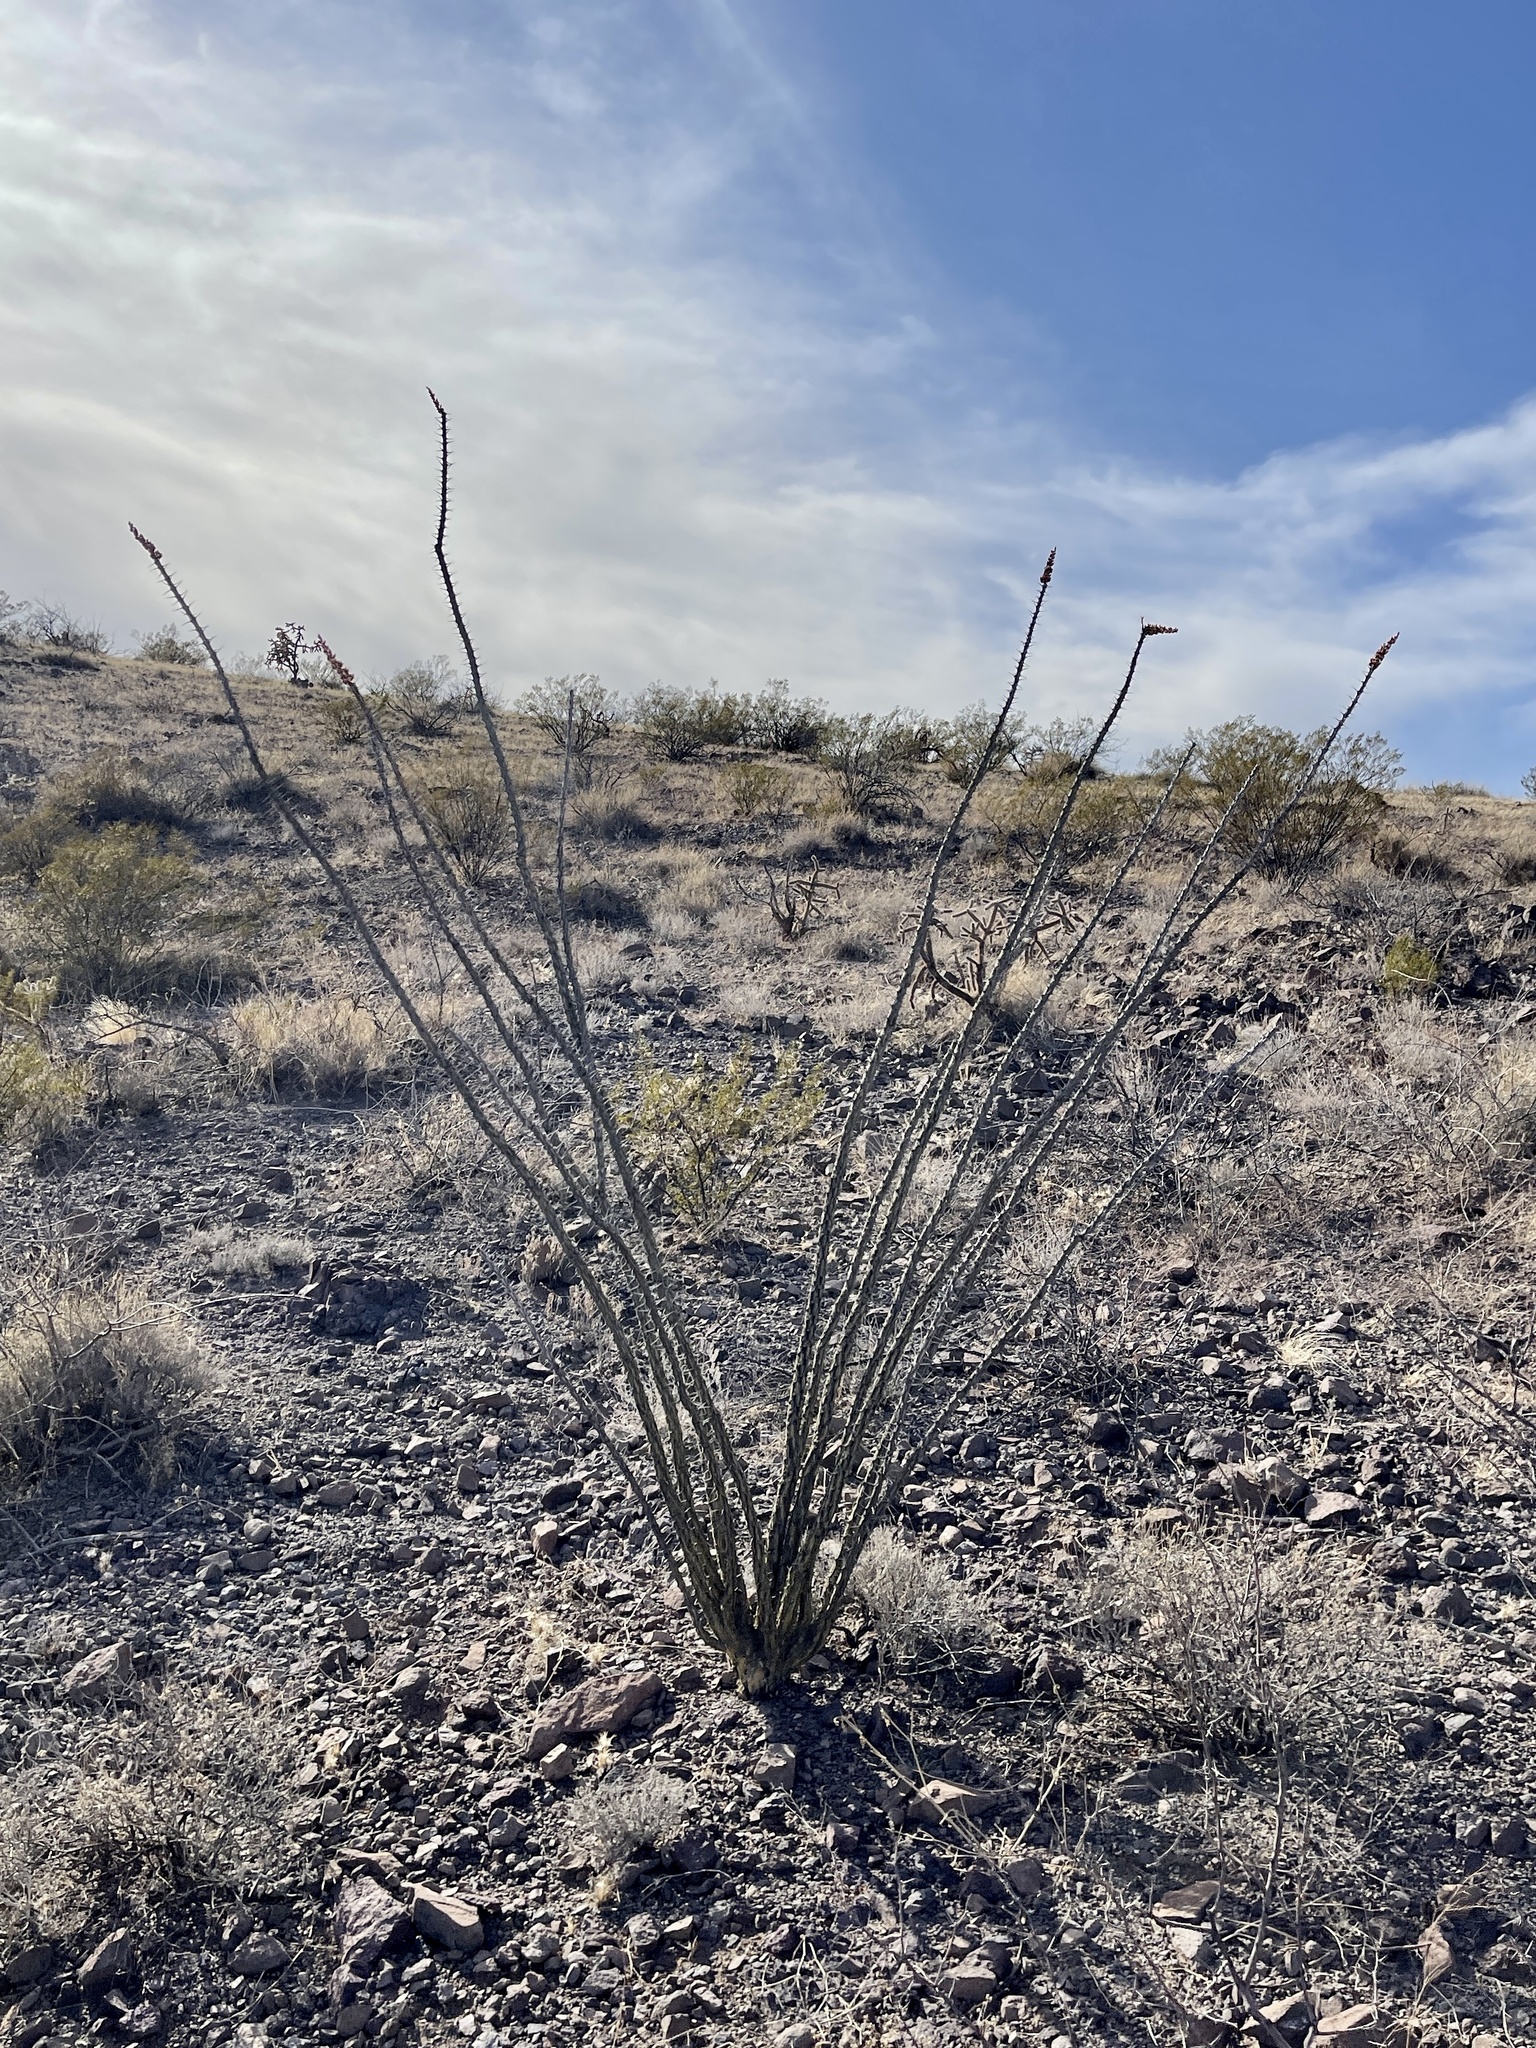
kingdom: Plantae
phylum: Tracheophyta
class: Magnoliopsida
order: Ericales
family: Fouquieriaceae
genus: Fouquieria
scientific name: Fouquieria splendens
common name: Vine-cactus
